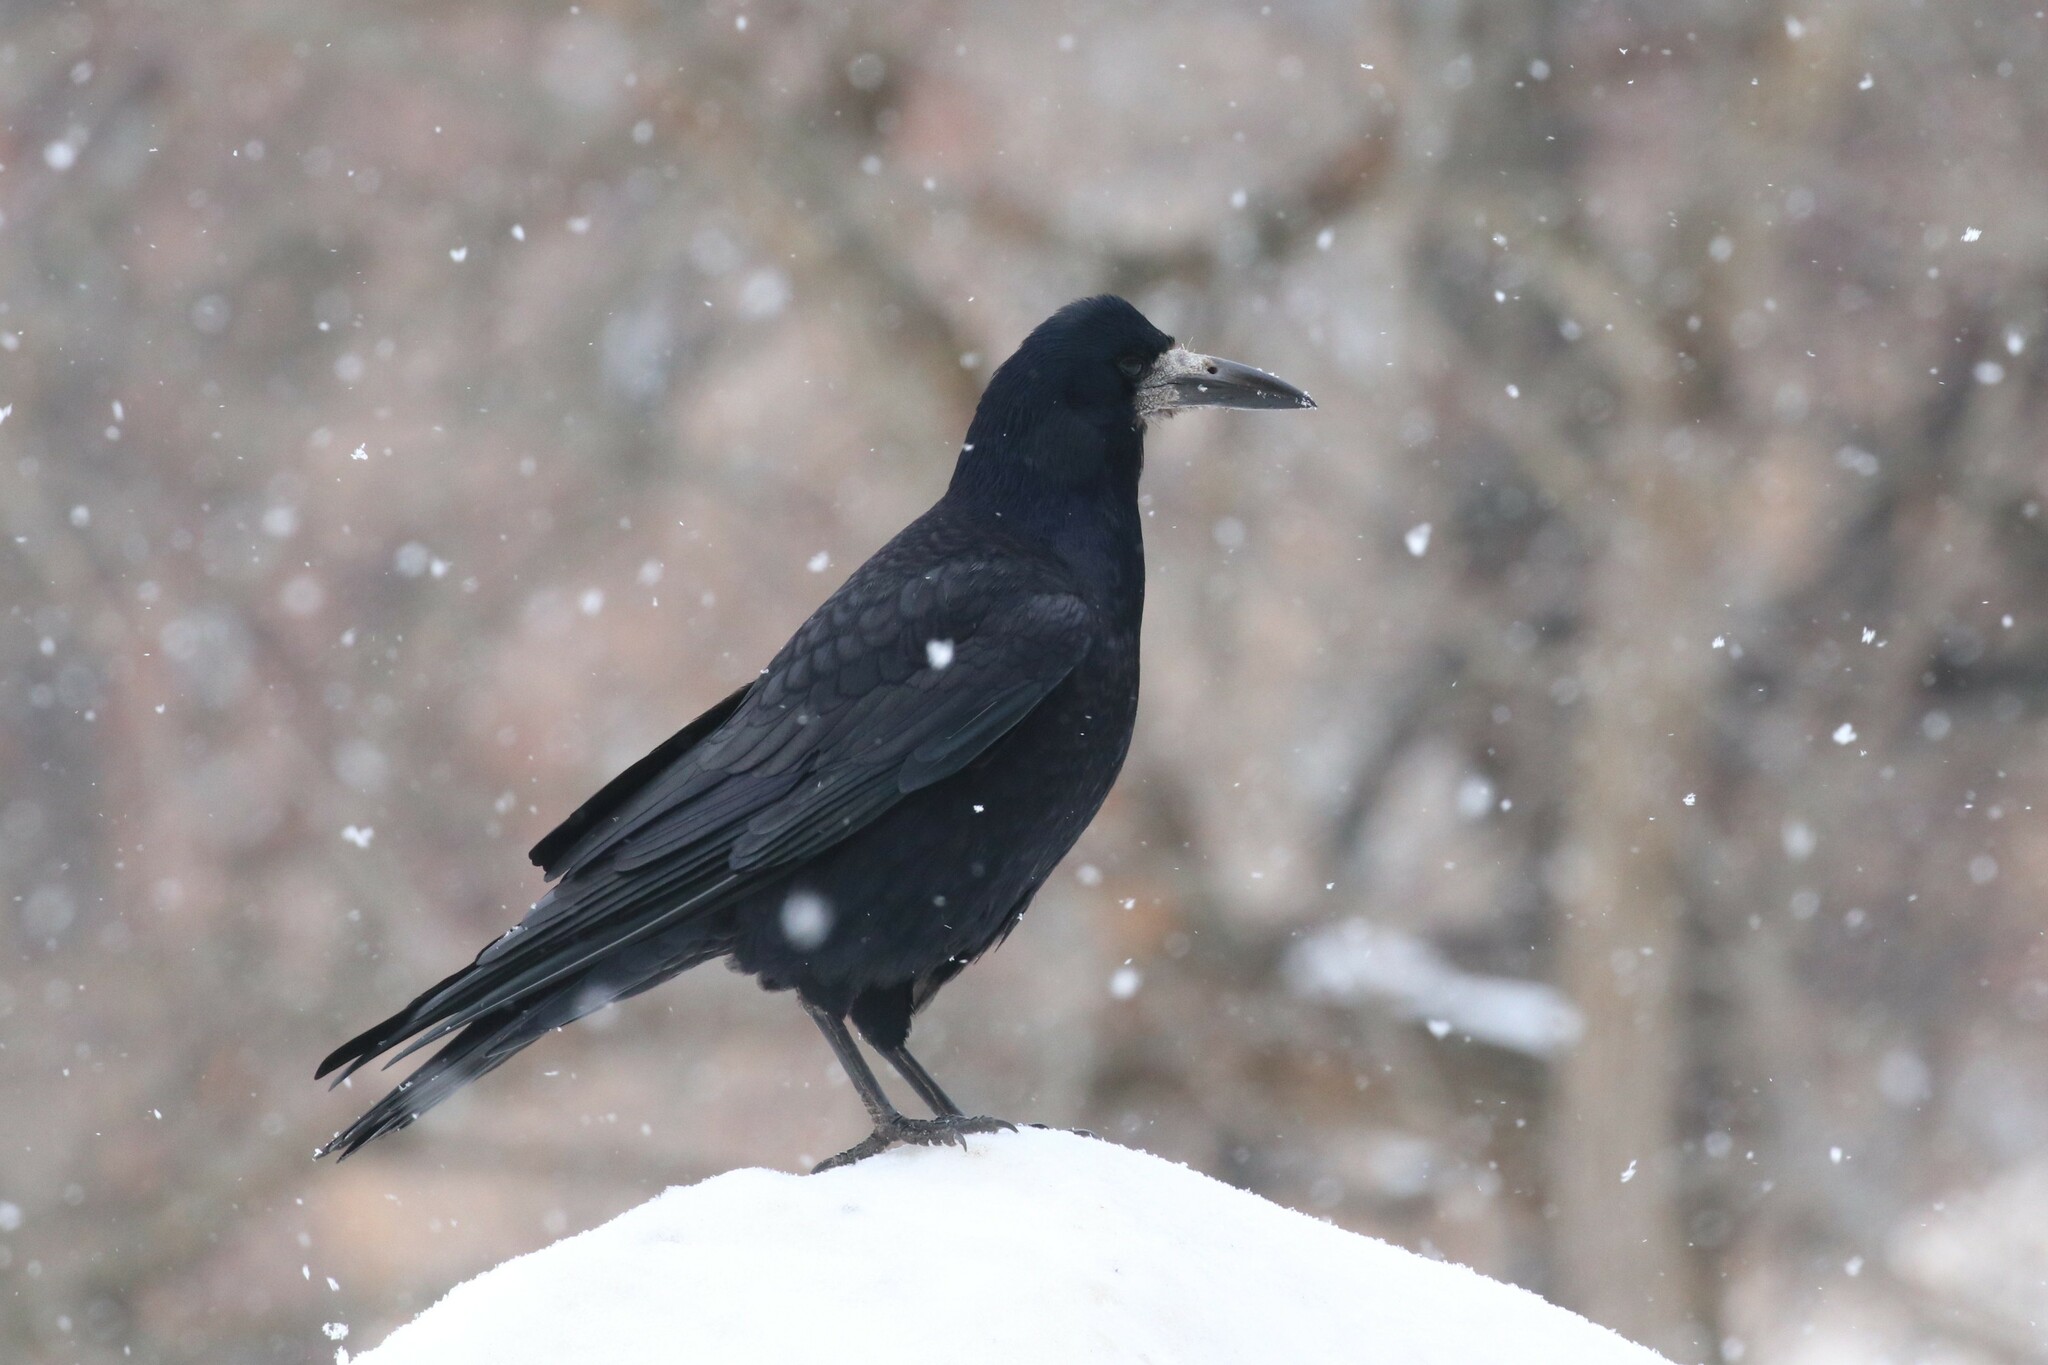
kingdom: Animalia
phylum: Chordata
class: Aves
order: Passeriformes
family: Corvidae
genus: Corvus
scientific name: Corvus frugilegus
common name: Rook
